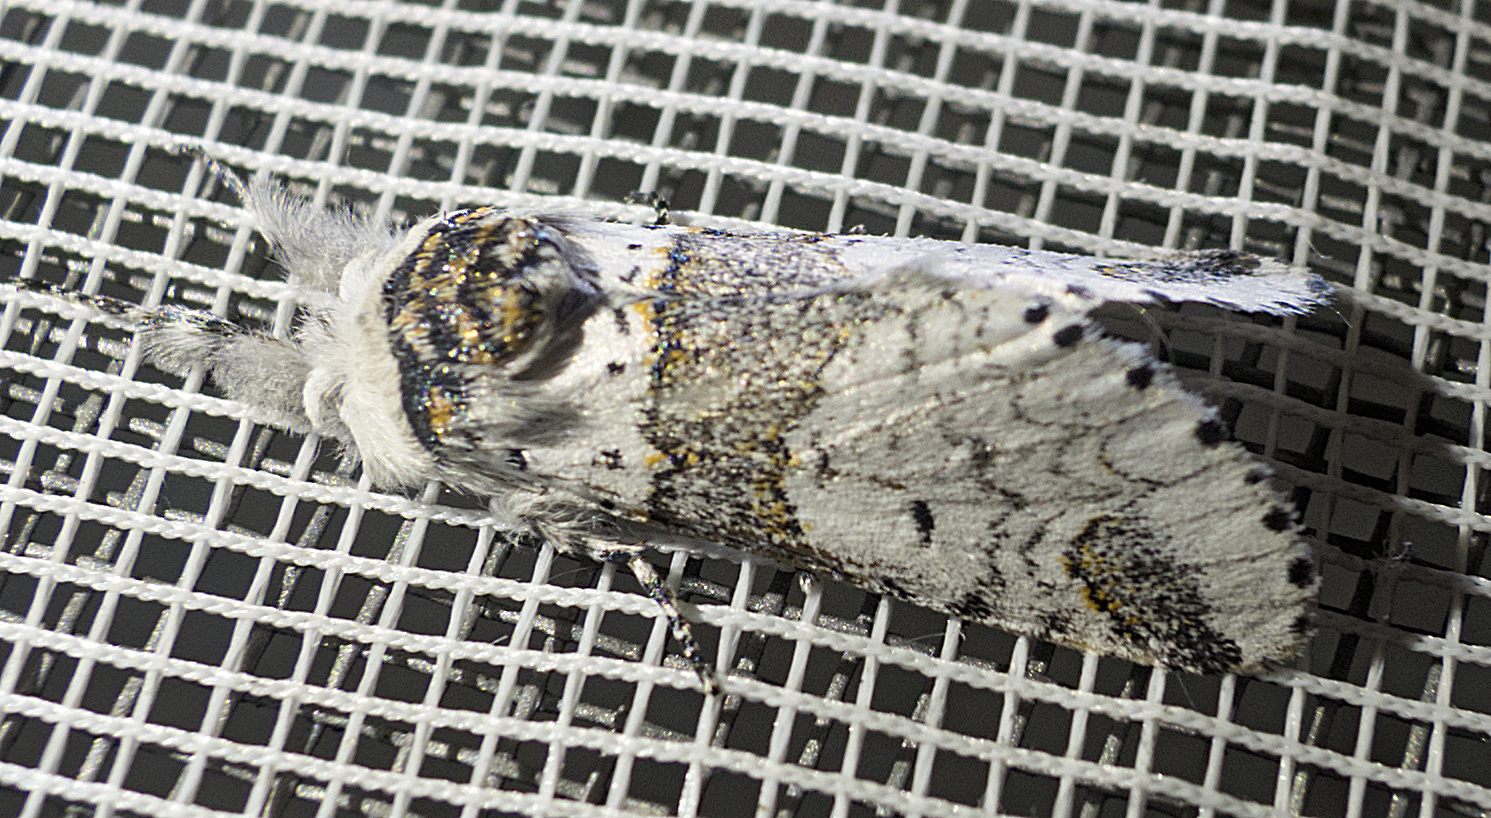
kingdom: Animalia
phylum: Arthropoda
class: Insecta
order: Lepidoptera
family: Notodontidae
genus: Furcula
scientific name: Furcula furcula
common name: Sallow kitten
